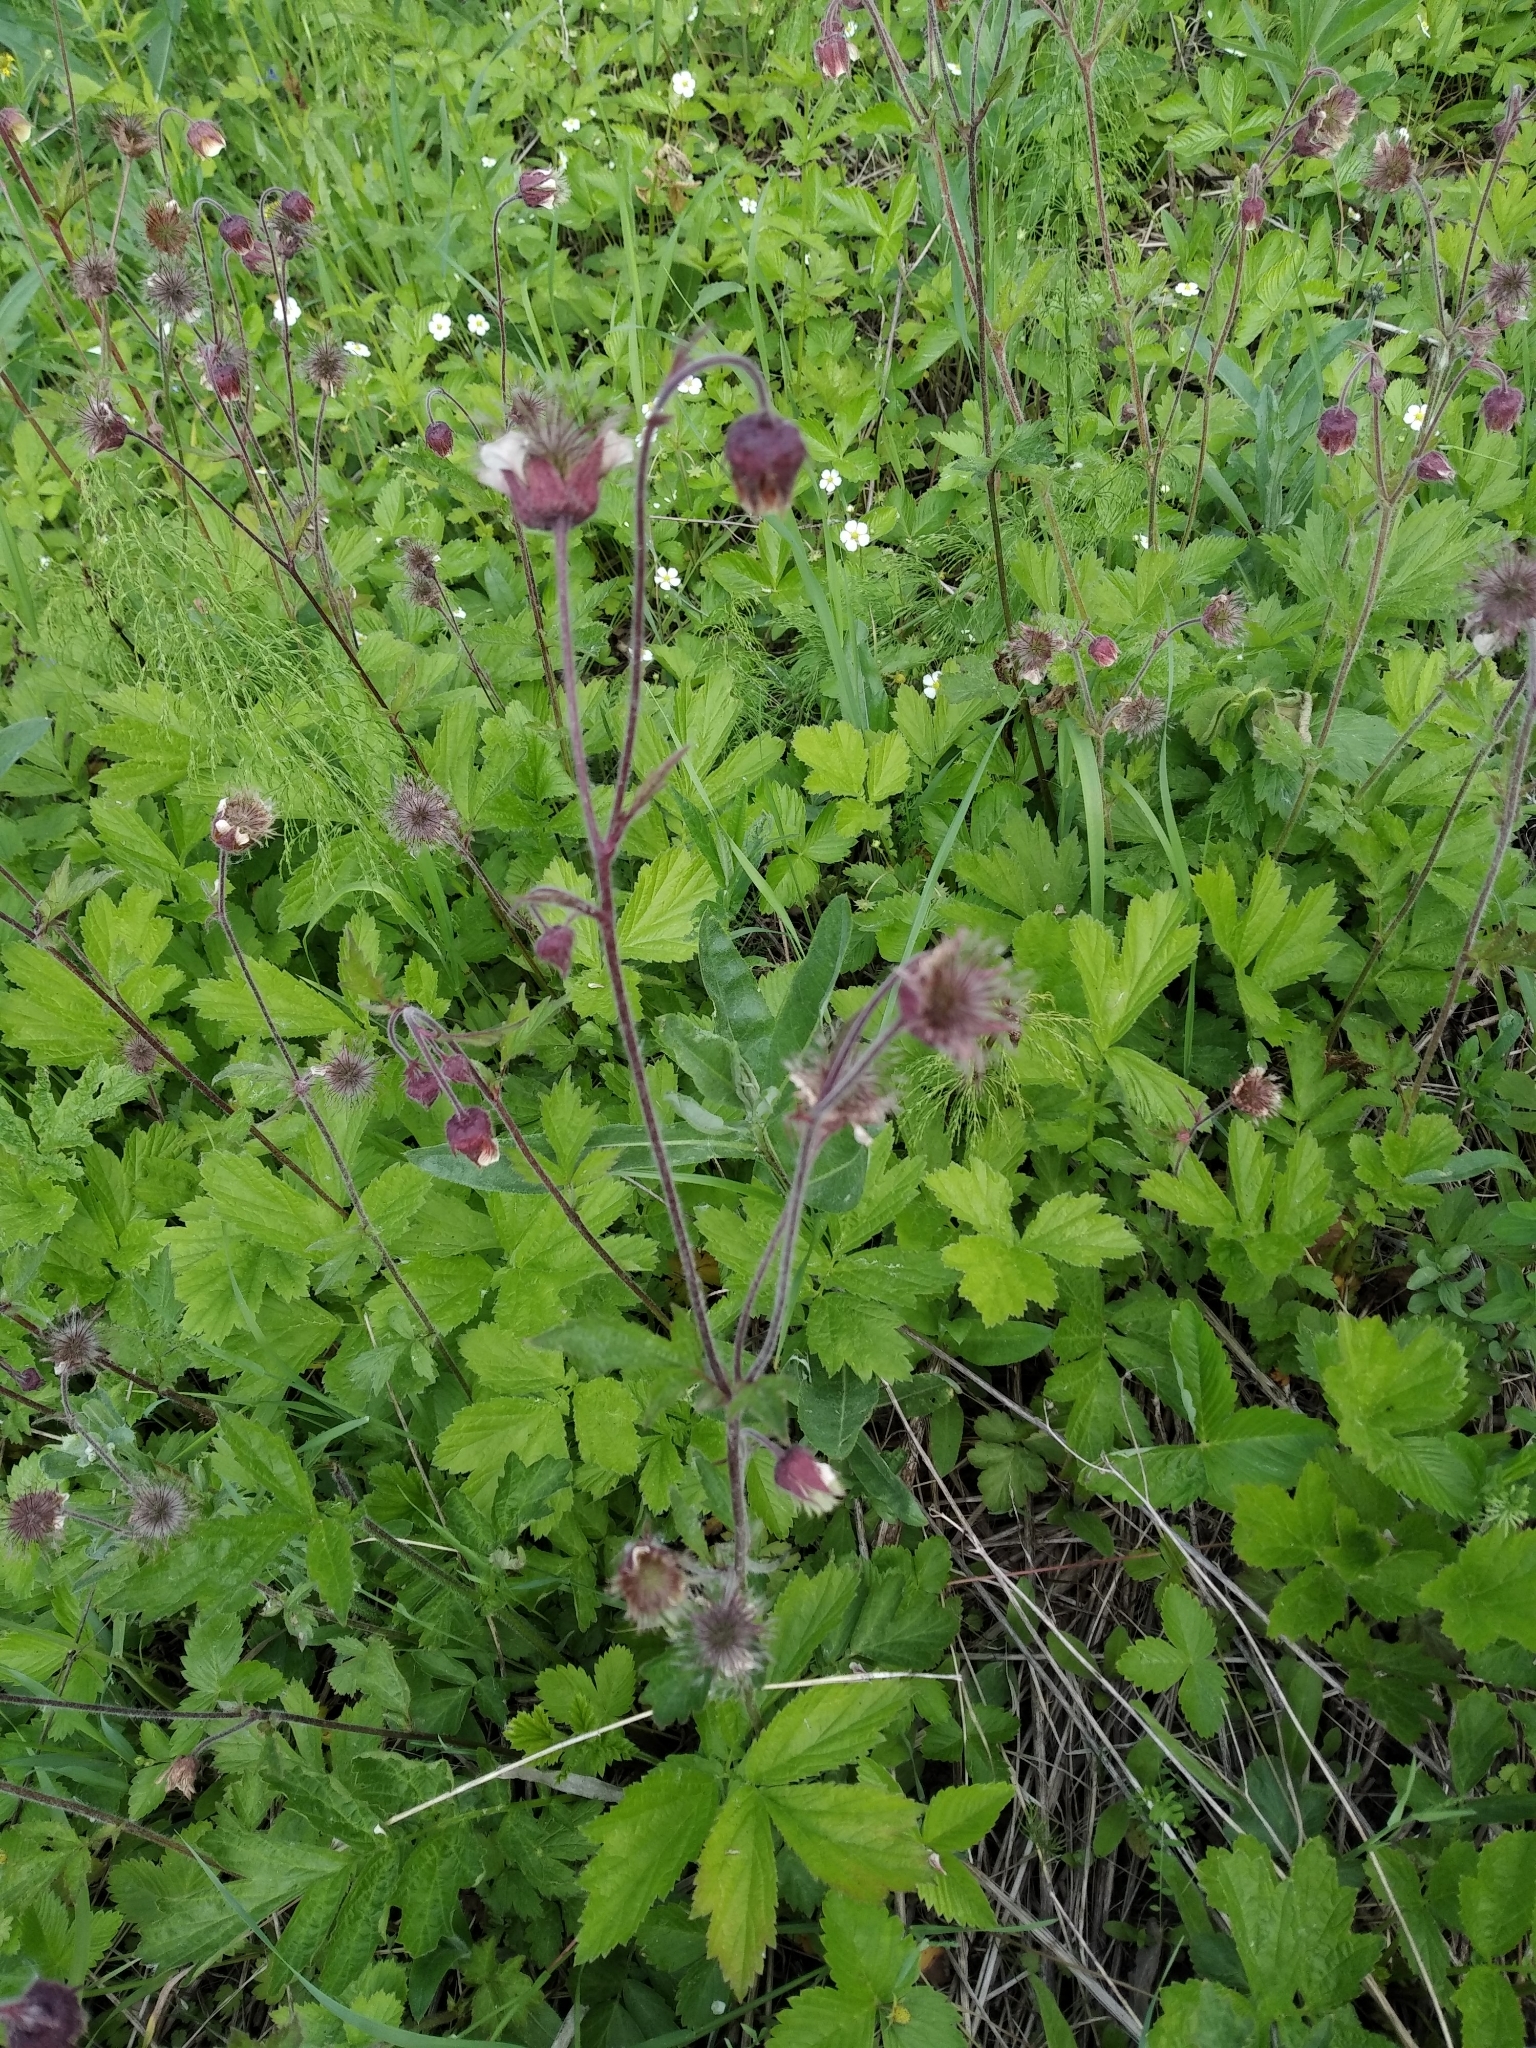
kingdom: Plantae
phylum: Tracheophyta
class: Magnoliopsida
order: Rosales
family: Rosaceae
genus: Geum
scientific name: Geum rivale
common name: Water avens
